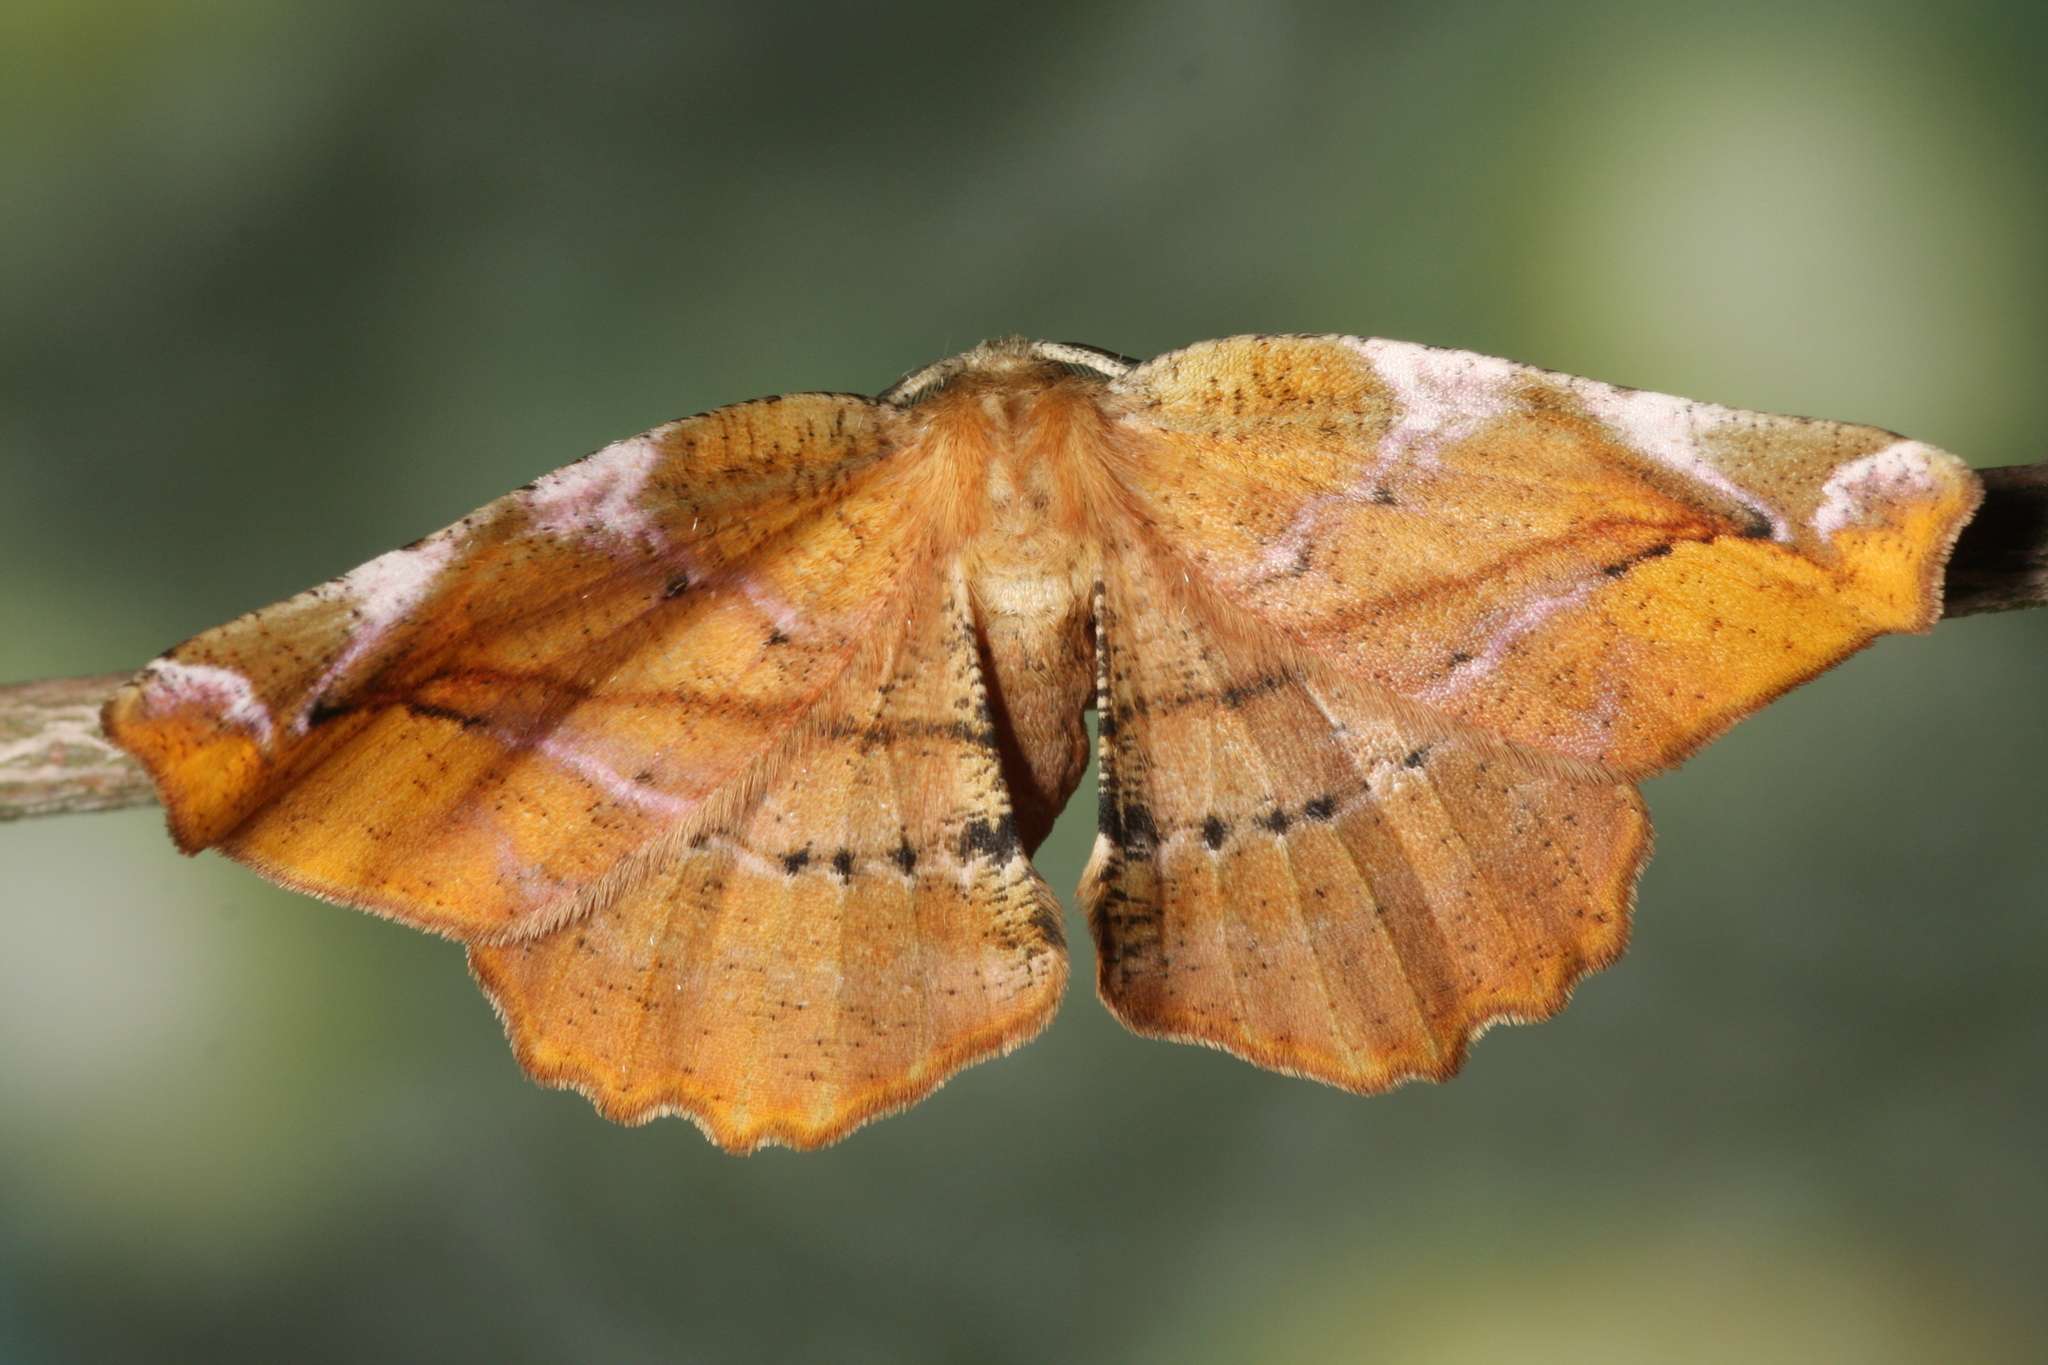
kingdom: Animalia
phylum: Arthropoda
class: Insecta
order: Lepidoptera
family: Geometridae
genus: Apeira
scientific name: Apeira syringaria
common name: Lilac beauty
